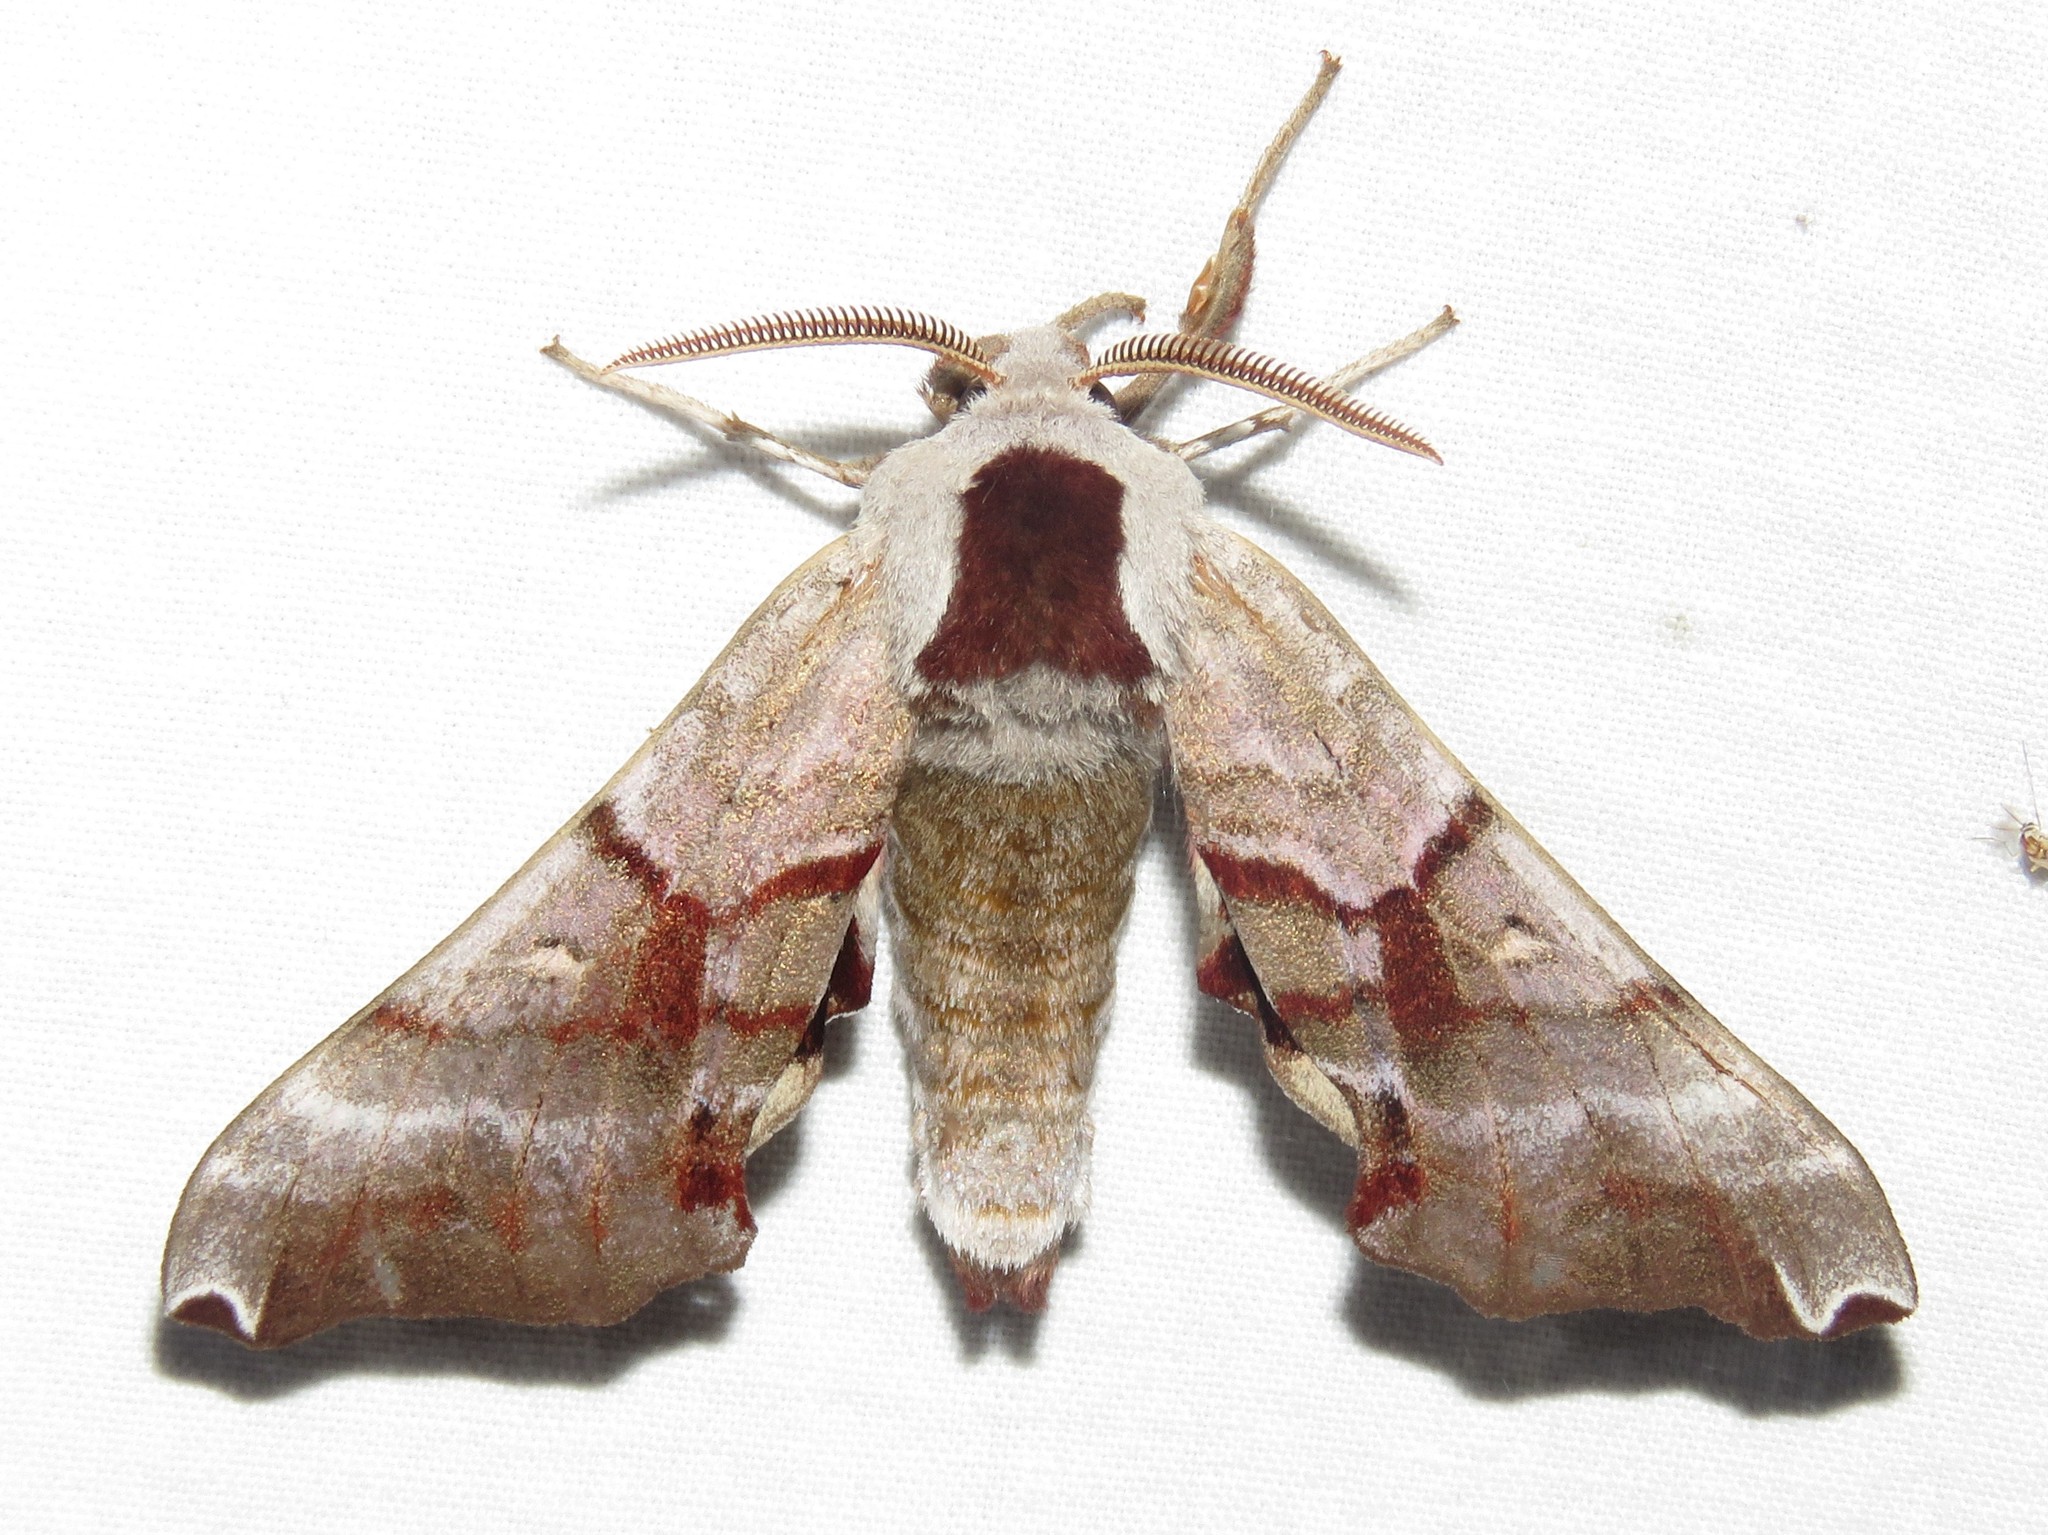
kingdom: Animalia
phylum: Arthropoda
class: Insecta
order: Lepidoptera
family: Sphingidae
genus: Smerinthus
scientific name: Smerinthus jamaicensis
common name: Twin spotted sphinx
